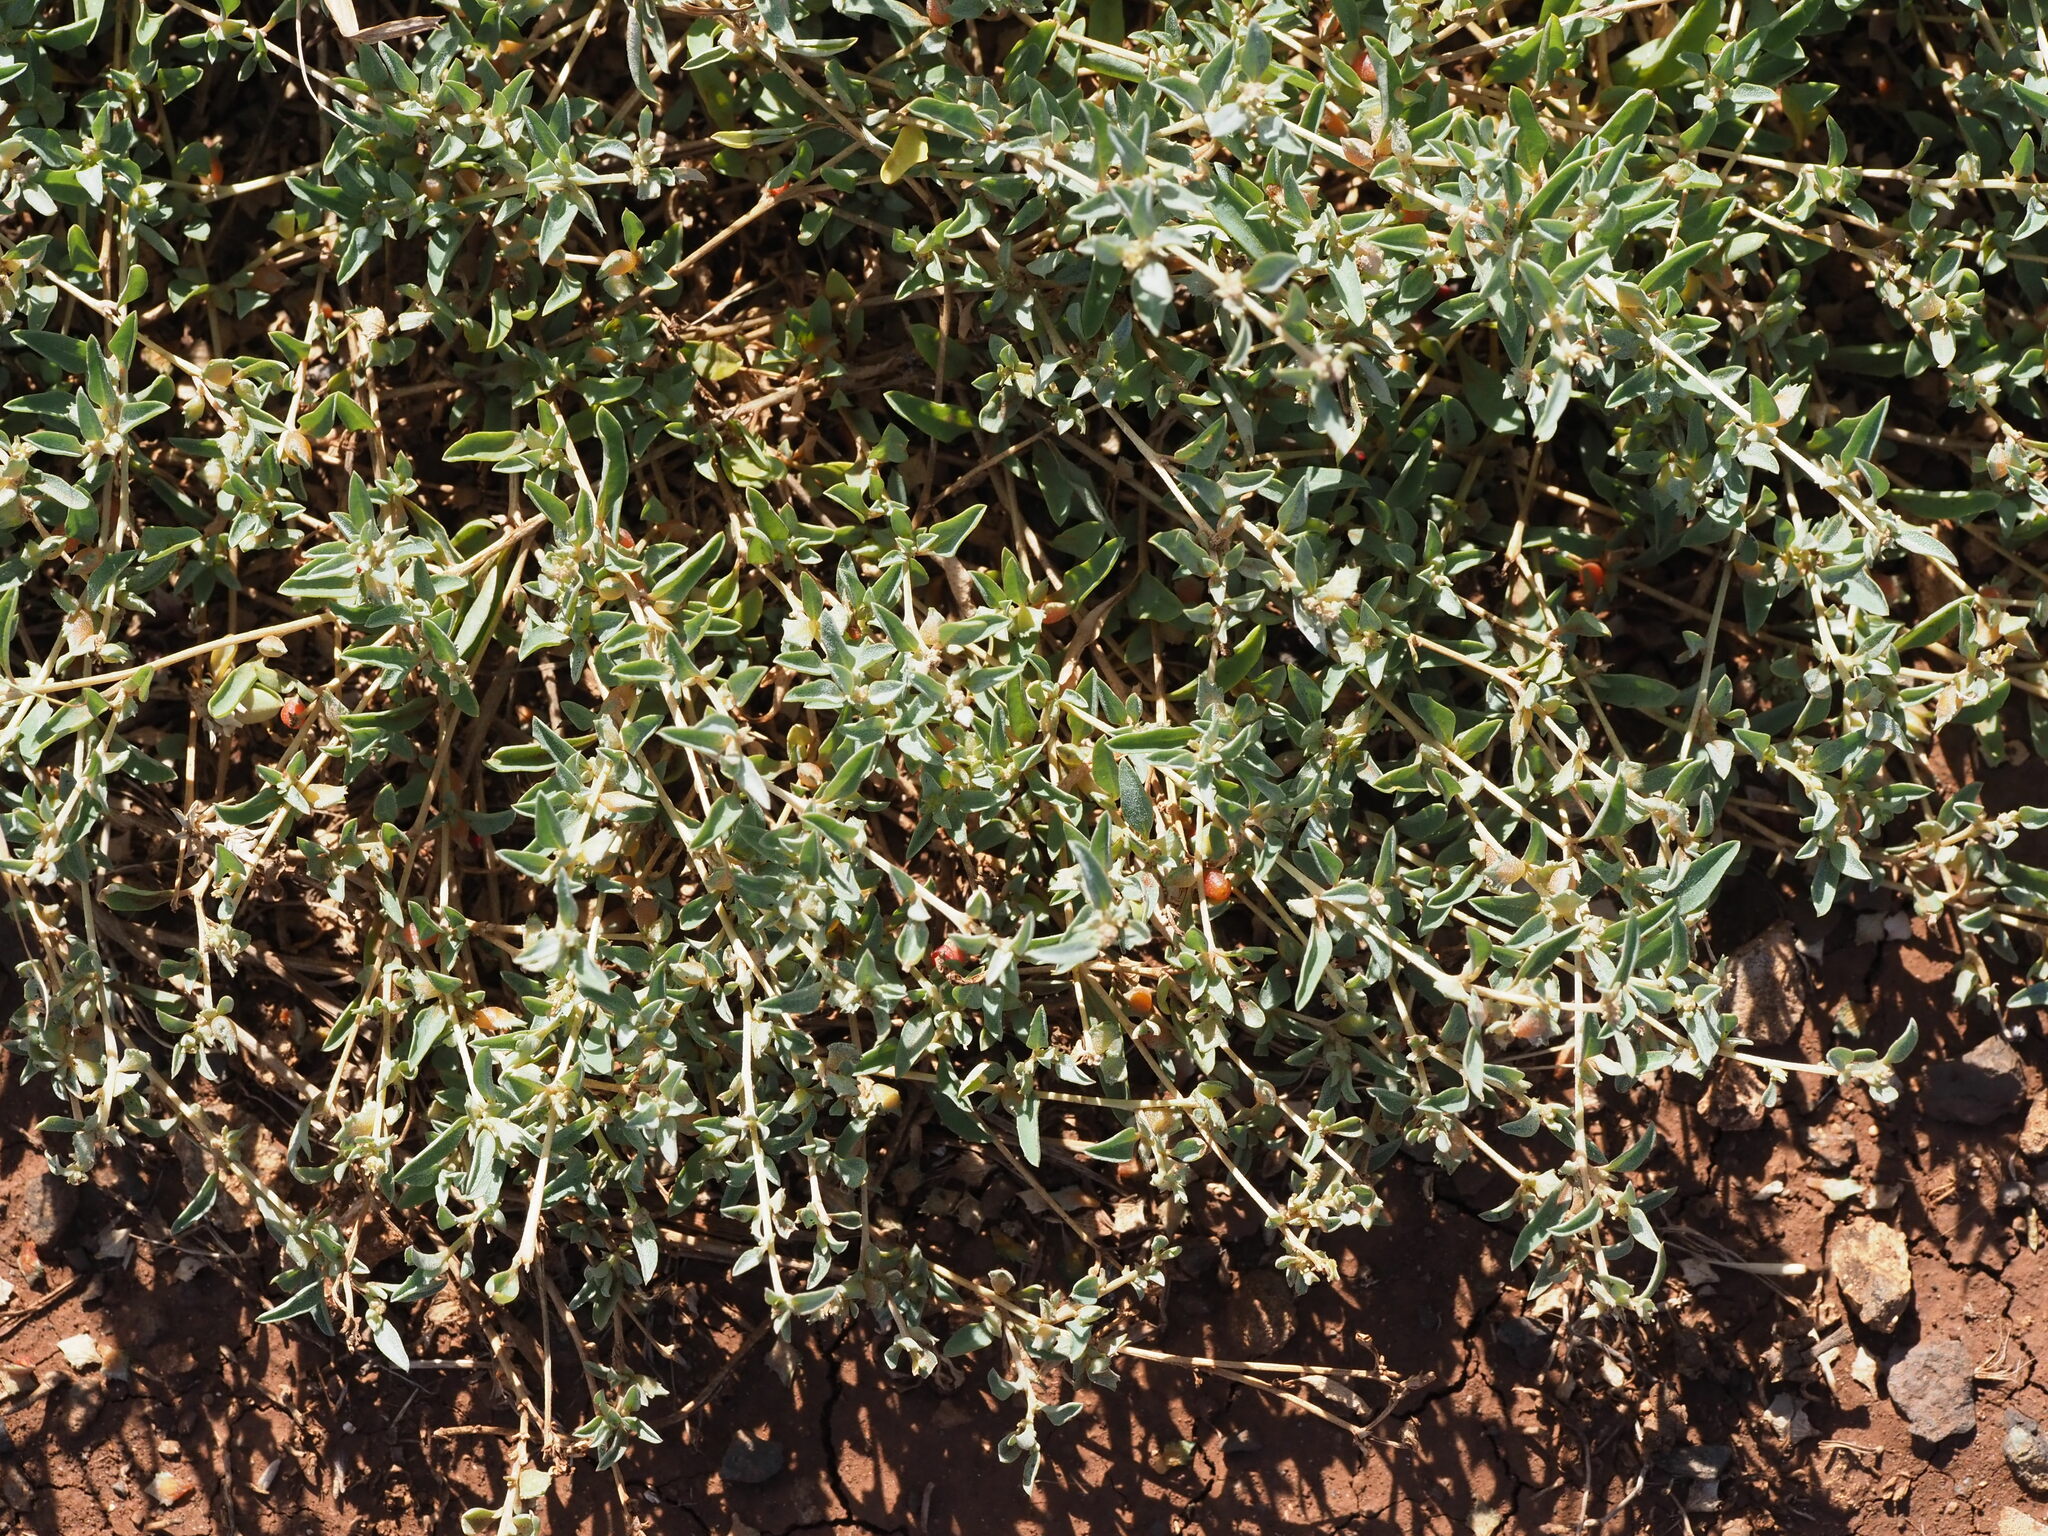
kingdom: Plantae
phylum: Tracheophyta
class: Magnoliopsida
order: Caryophyllales
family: Amaranthaceae
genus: Atriplex
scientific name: Atriplex semibaccata
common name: Australian saltbush
